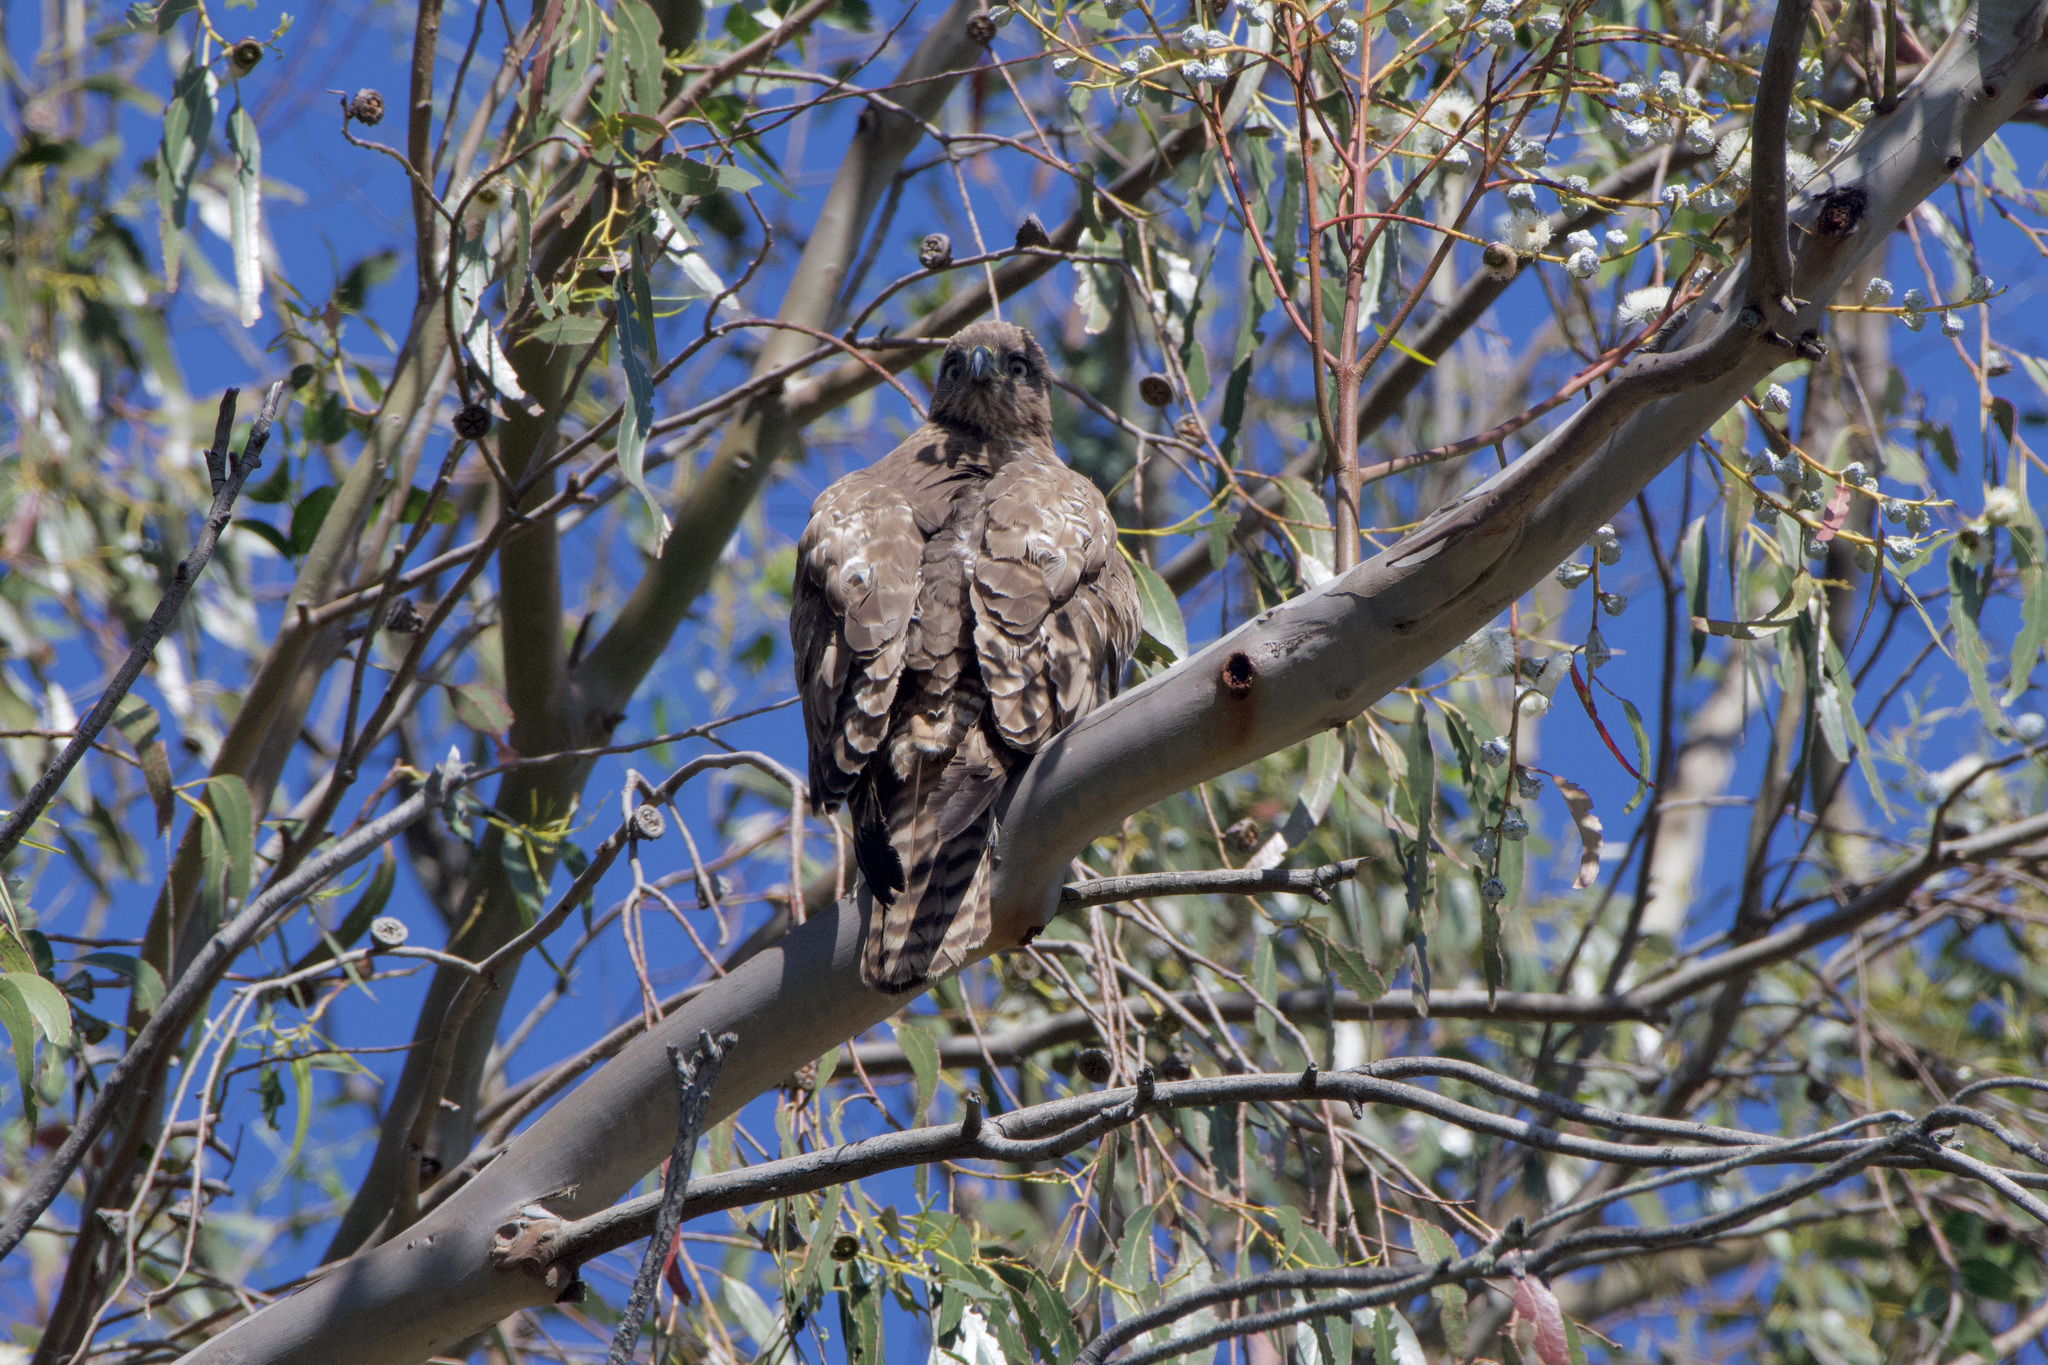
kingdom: Animalia
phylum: Chordata
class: Aves
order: Accipitriformes
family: Accipitridae
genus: Buteo
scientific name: Buteo jamaicensis
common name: Red-tailed hawk
